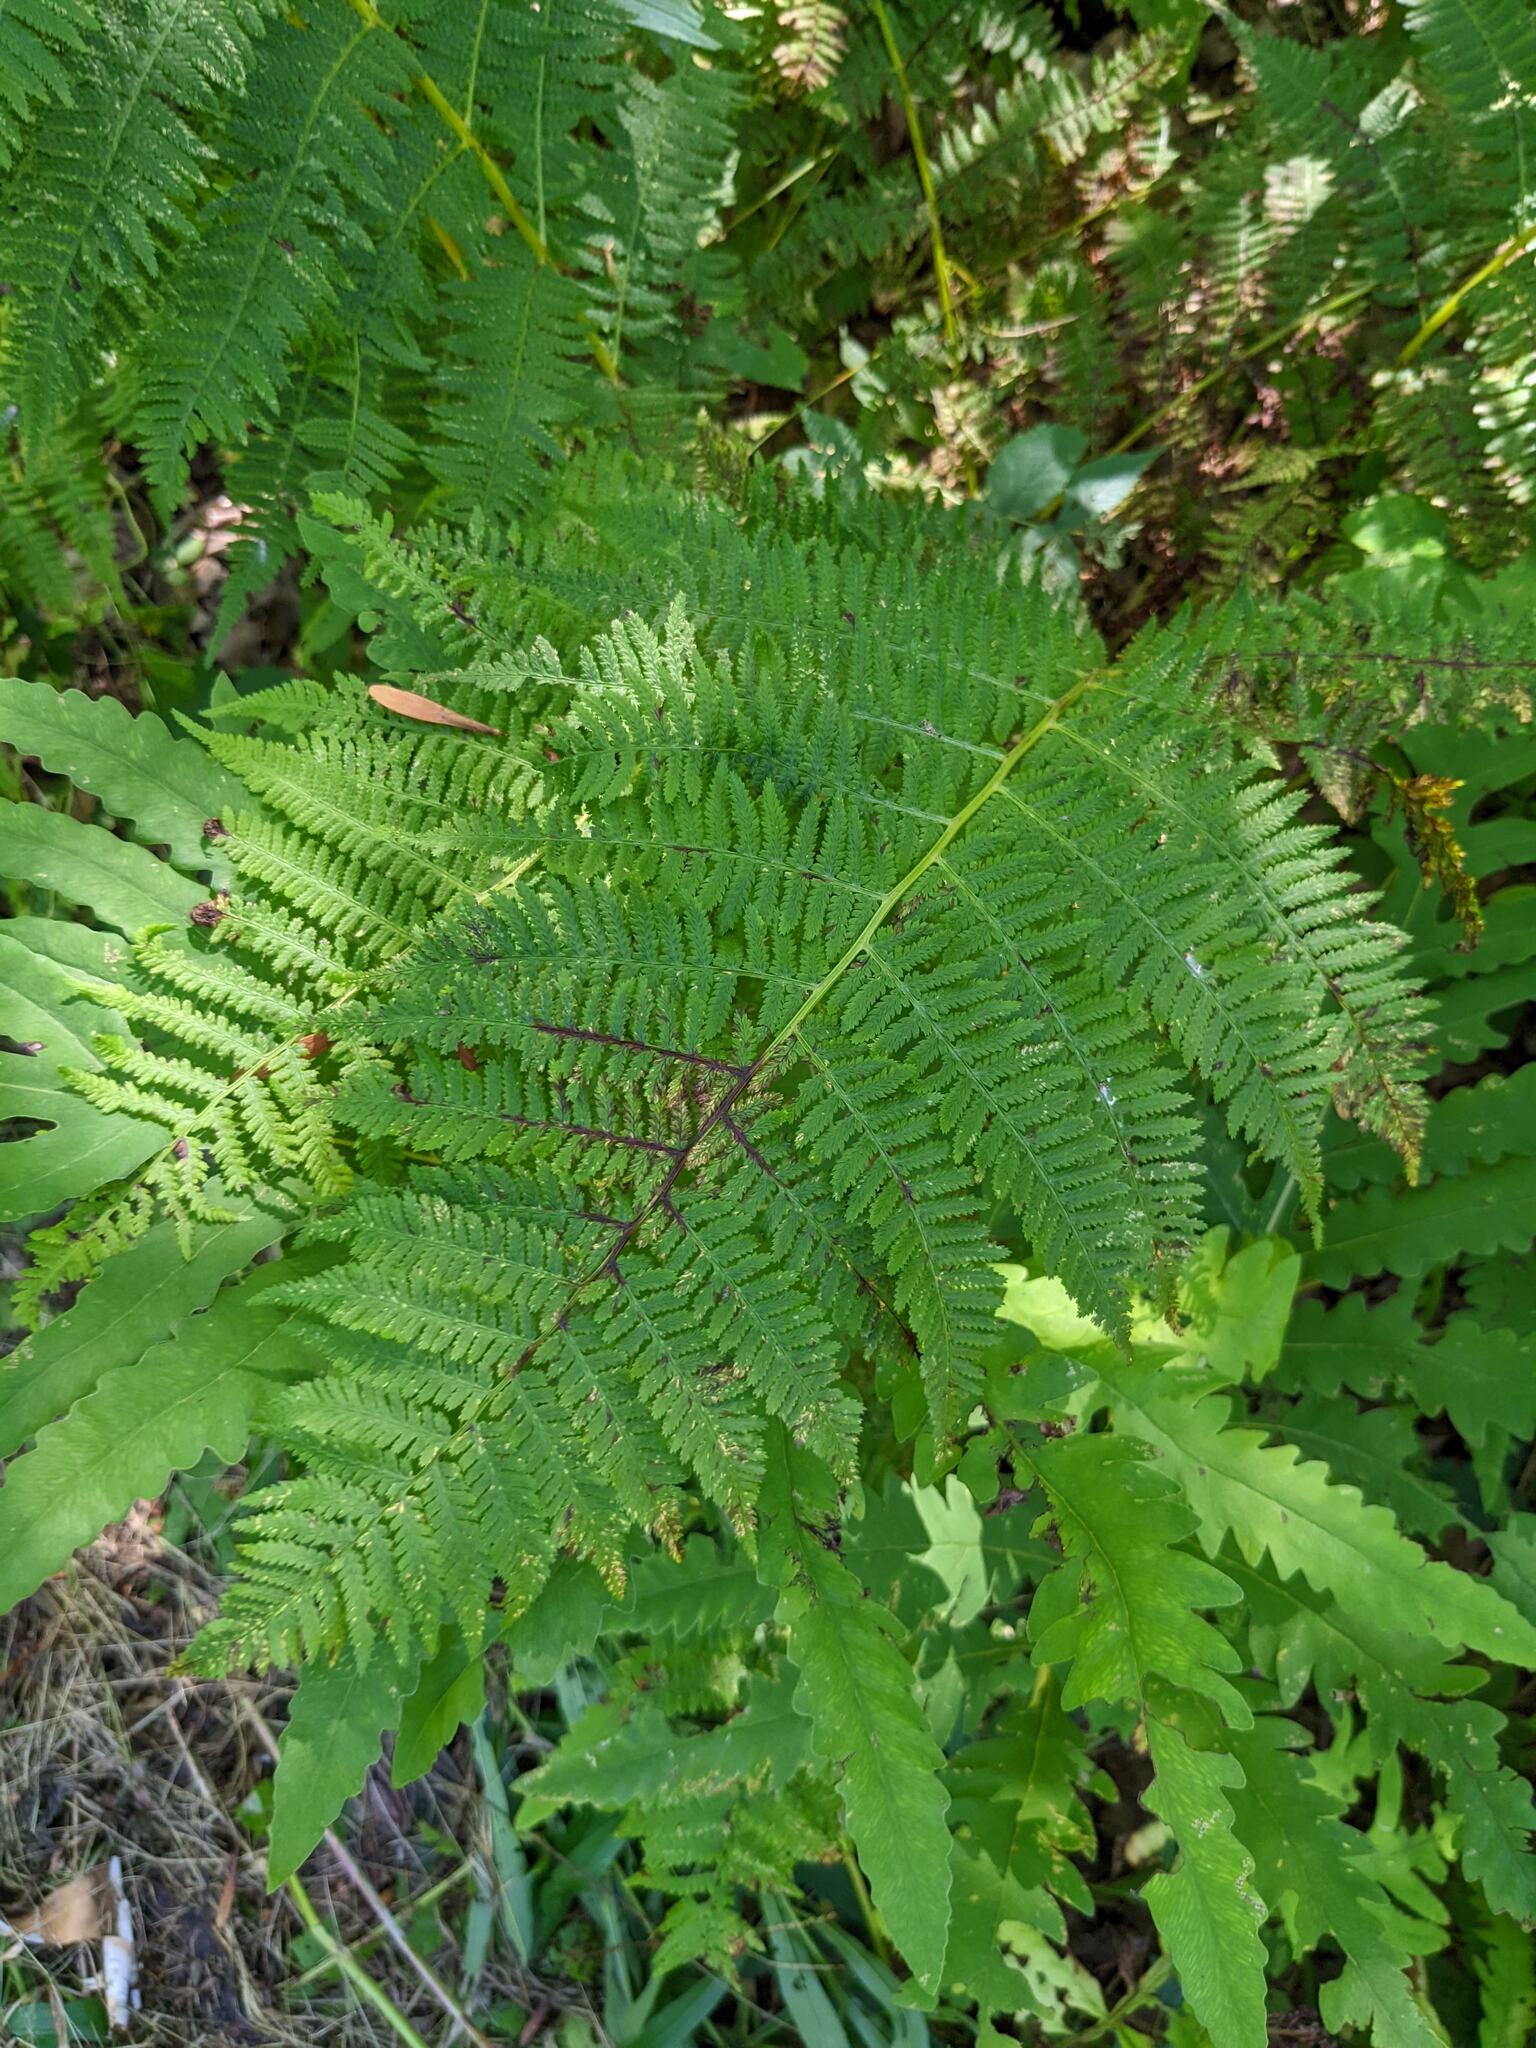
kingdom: Plantae
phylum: Tracheophyta
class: Polypodiopsida
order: Polypodiales
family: Athyriaceae
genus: Athyrium
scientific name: Athyrium angustum
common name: Northern lady fern
